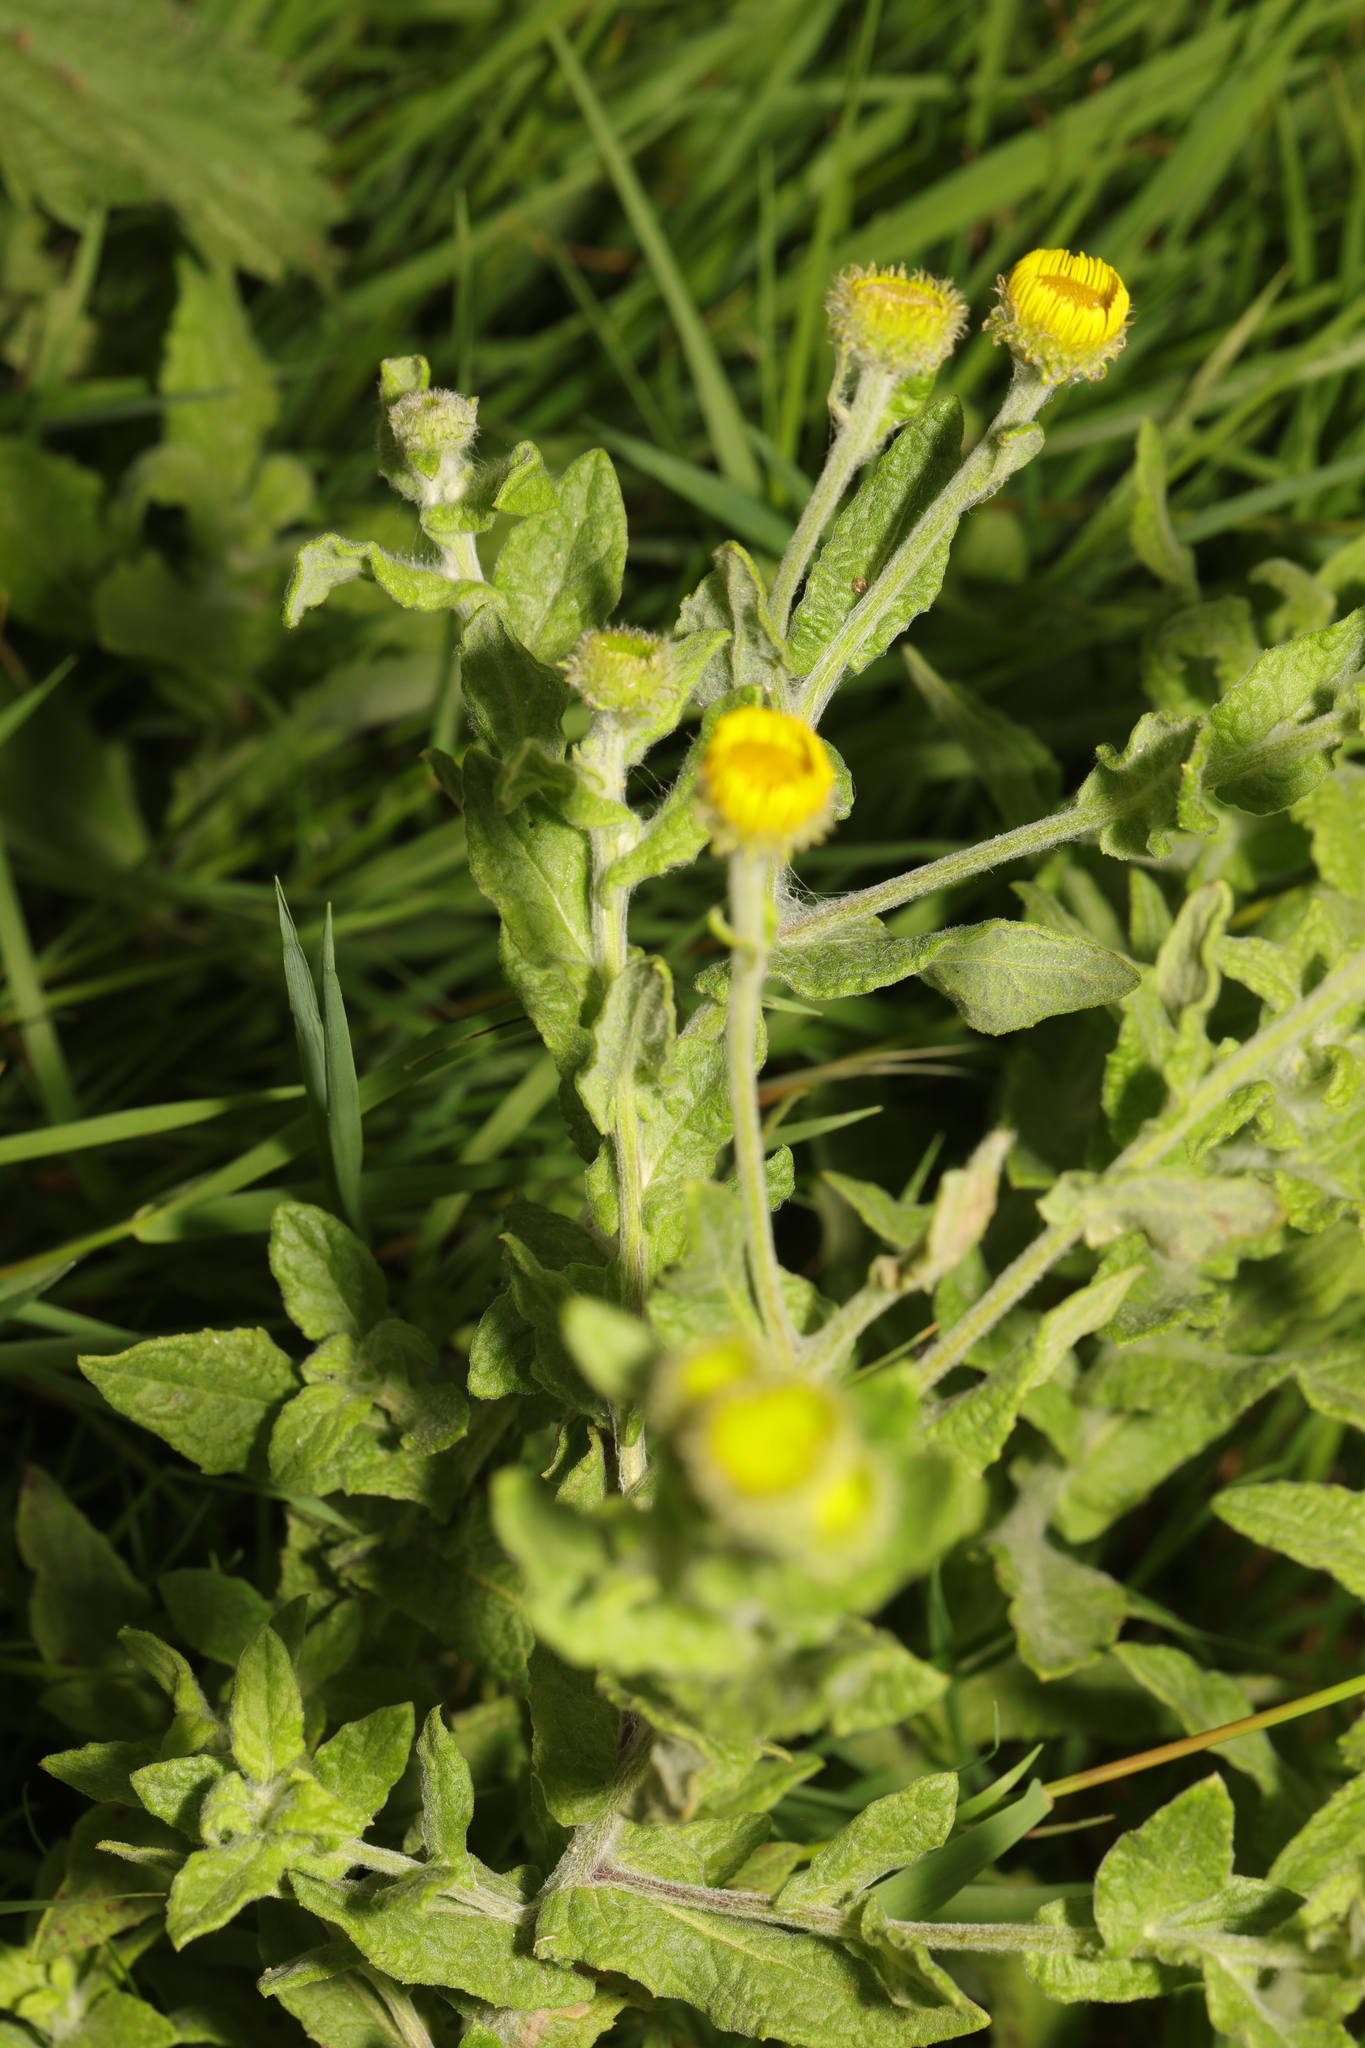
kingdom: Plantae
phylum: Tracheophyta
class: Magnoliopsida
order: Asterales
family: Asteraceae
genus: Pulicaria
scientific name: Pulicaria dysenterica
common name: Common fleabane
